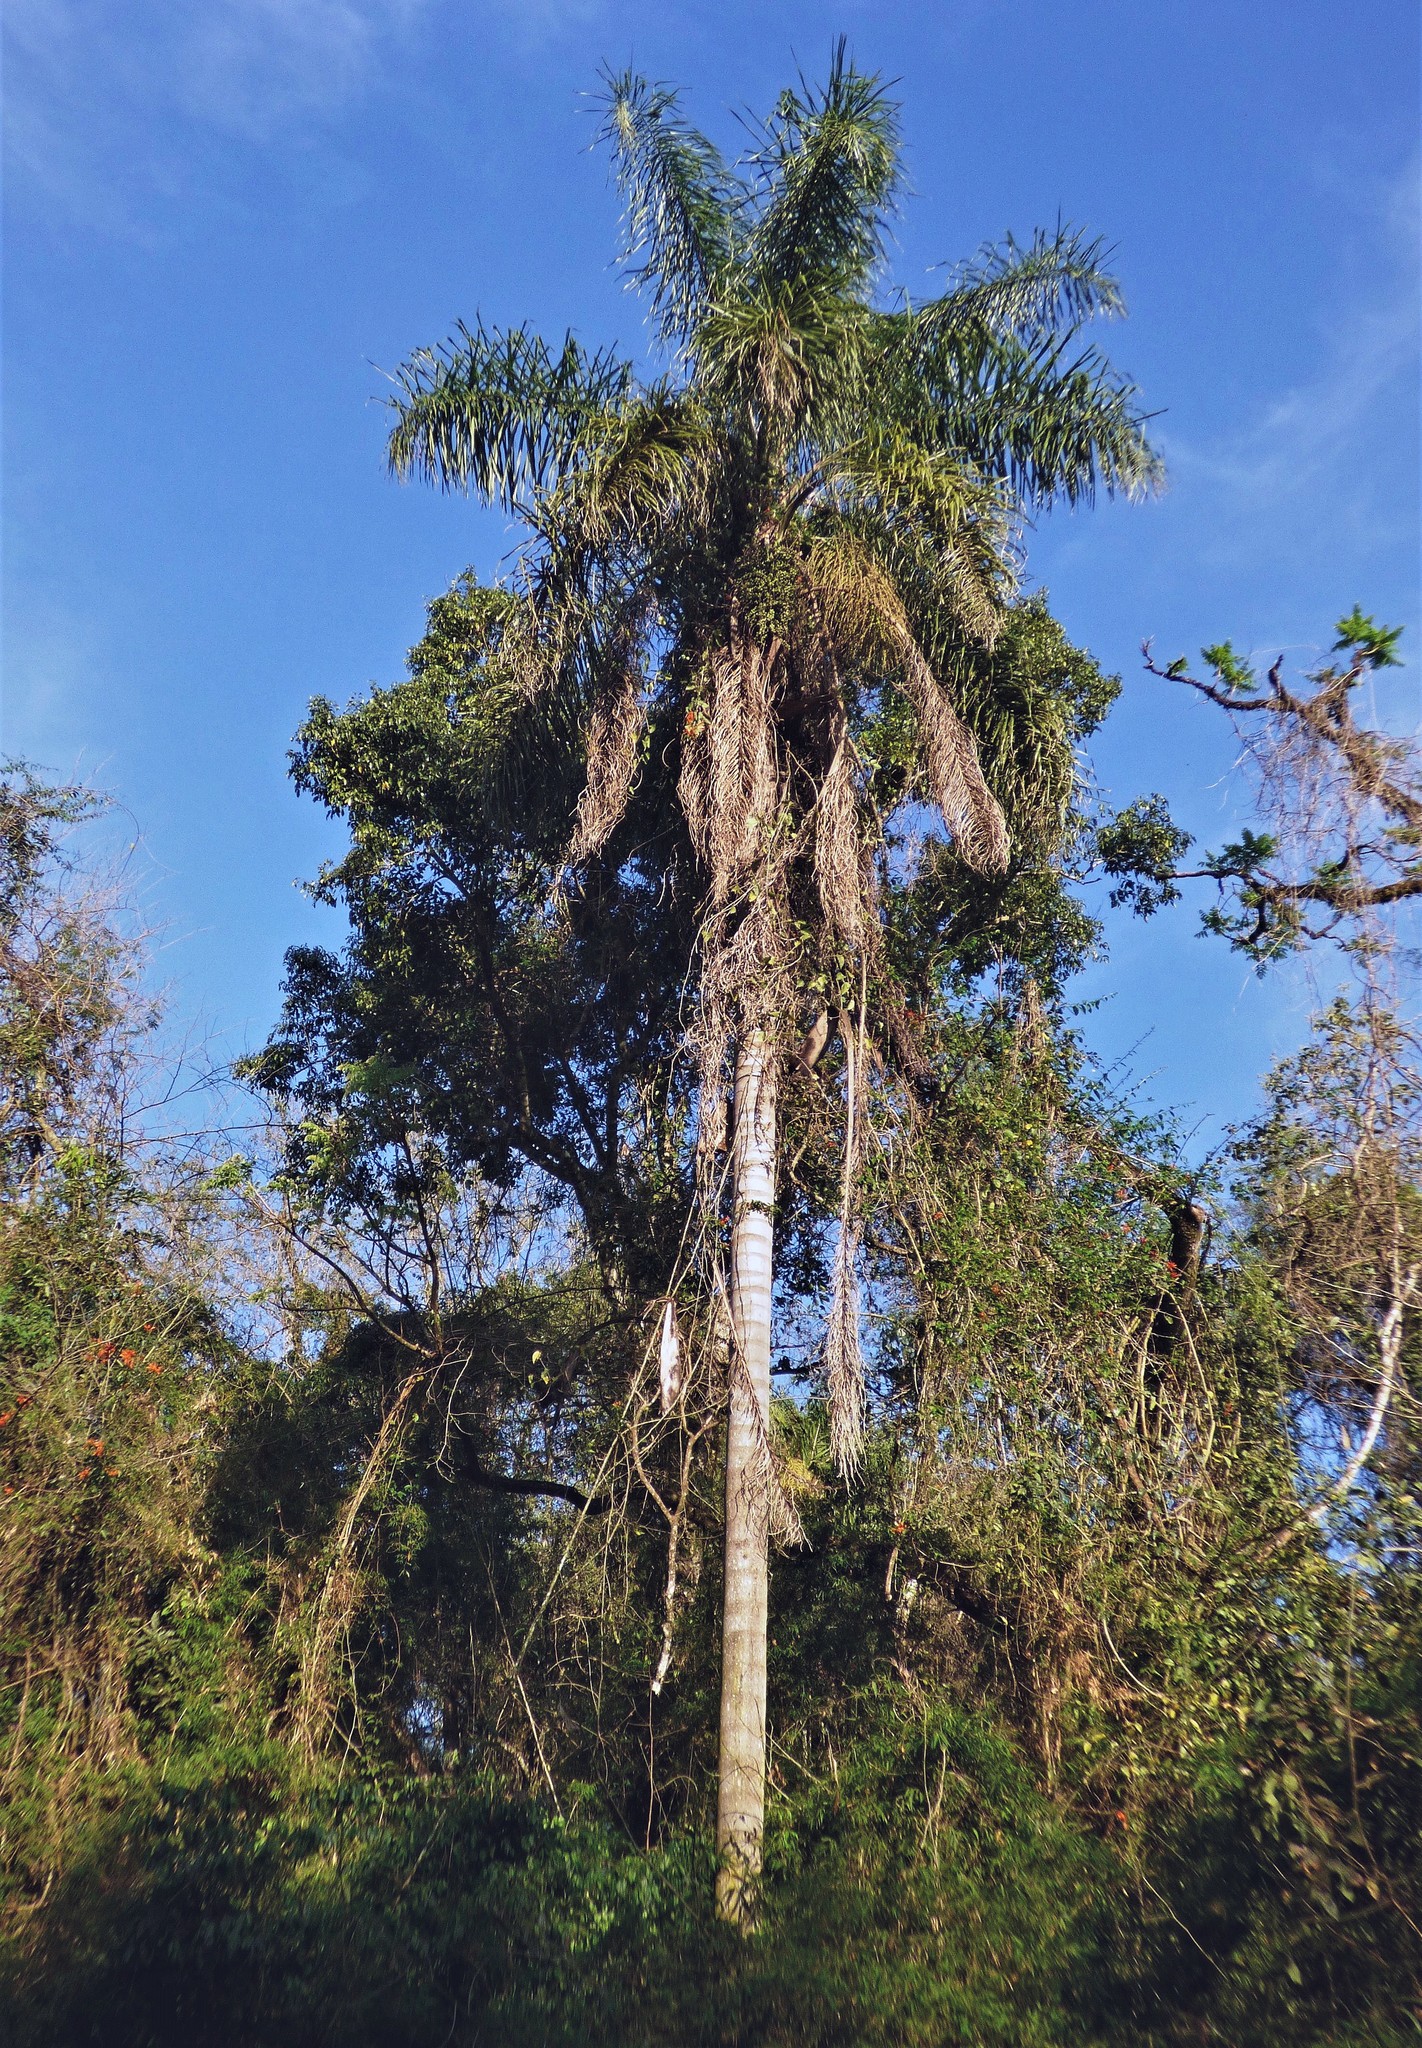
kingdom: Plantae
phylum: Tracheophyta
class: Liliopsida
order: Arecales
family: Arecaceae
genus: Syagrus
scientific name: Syagrus romanzoffiana
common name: Queen palm
